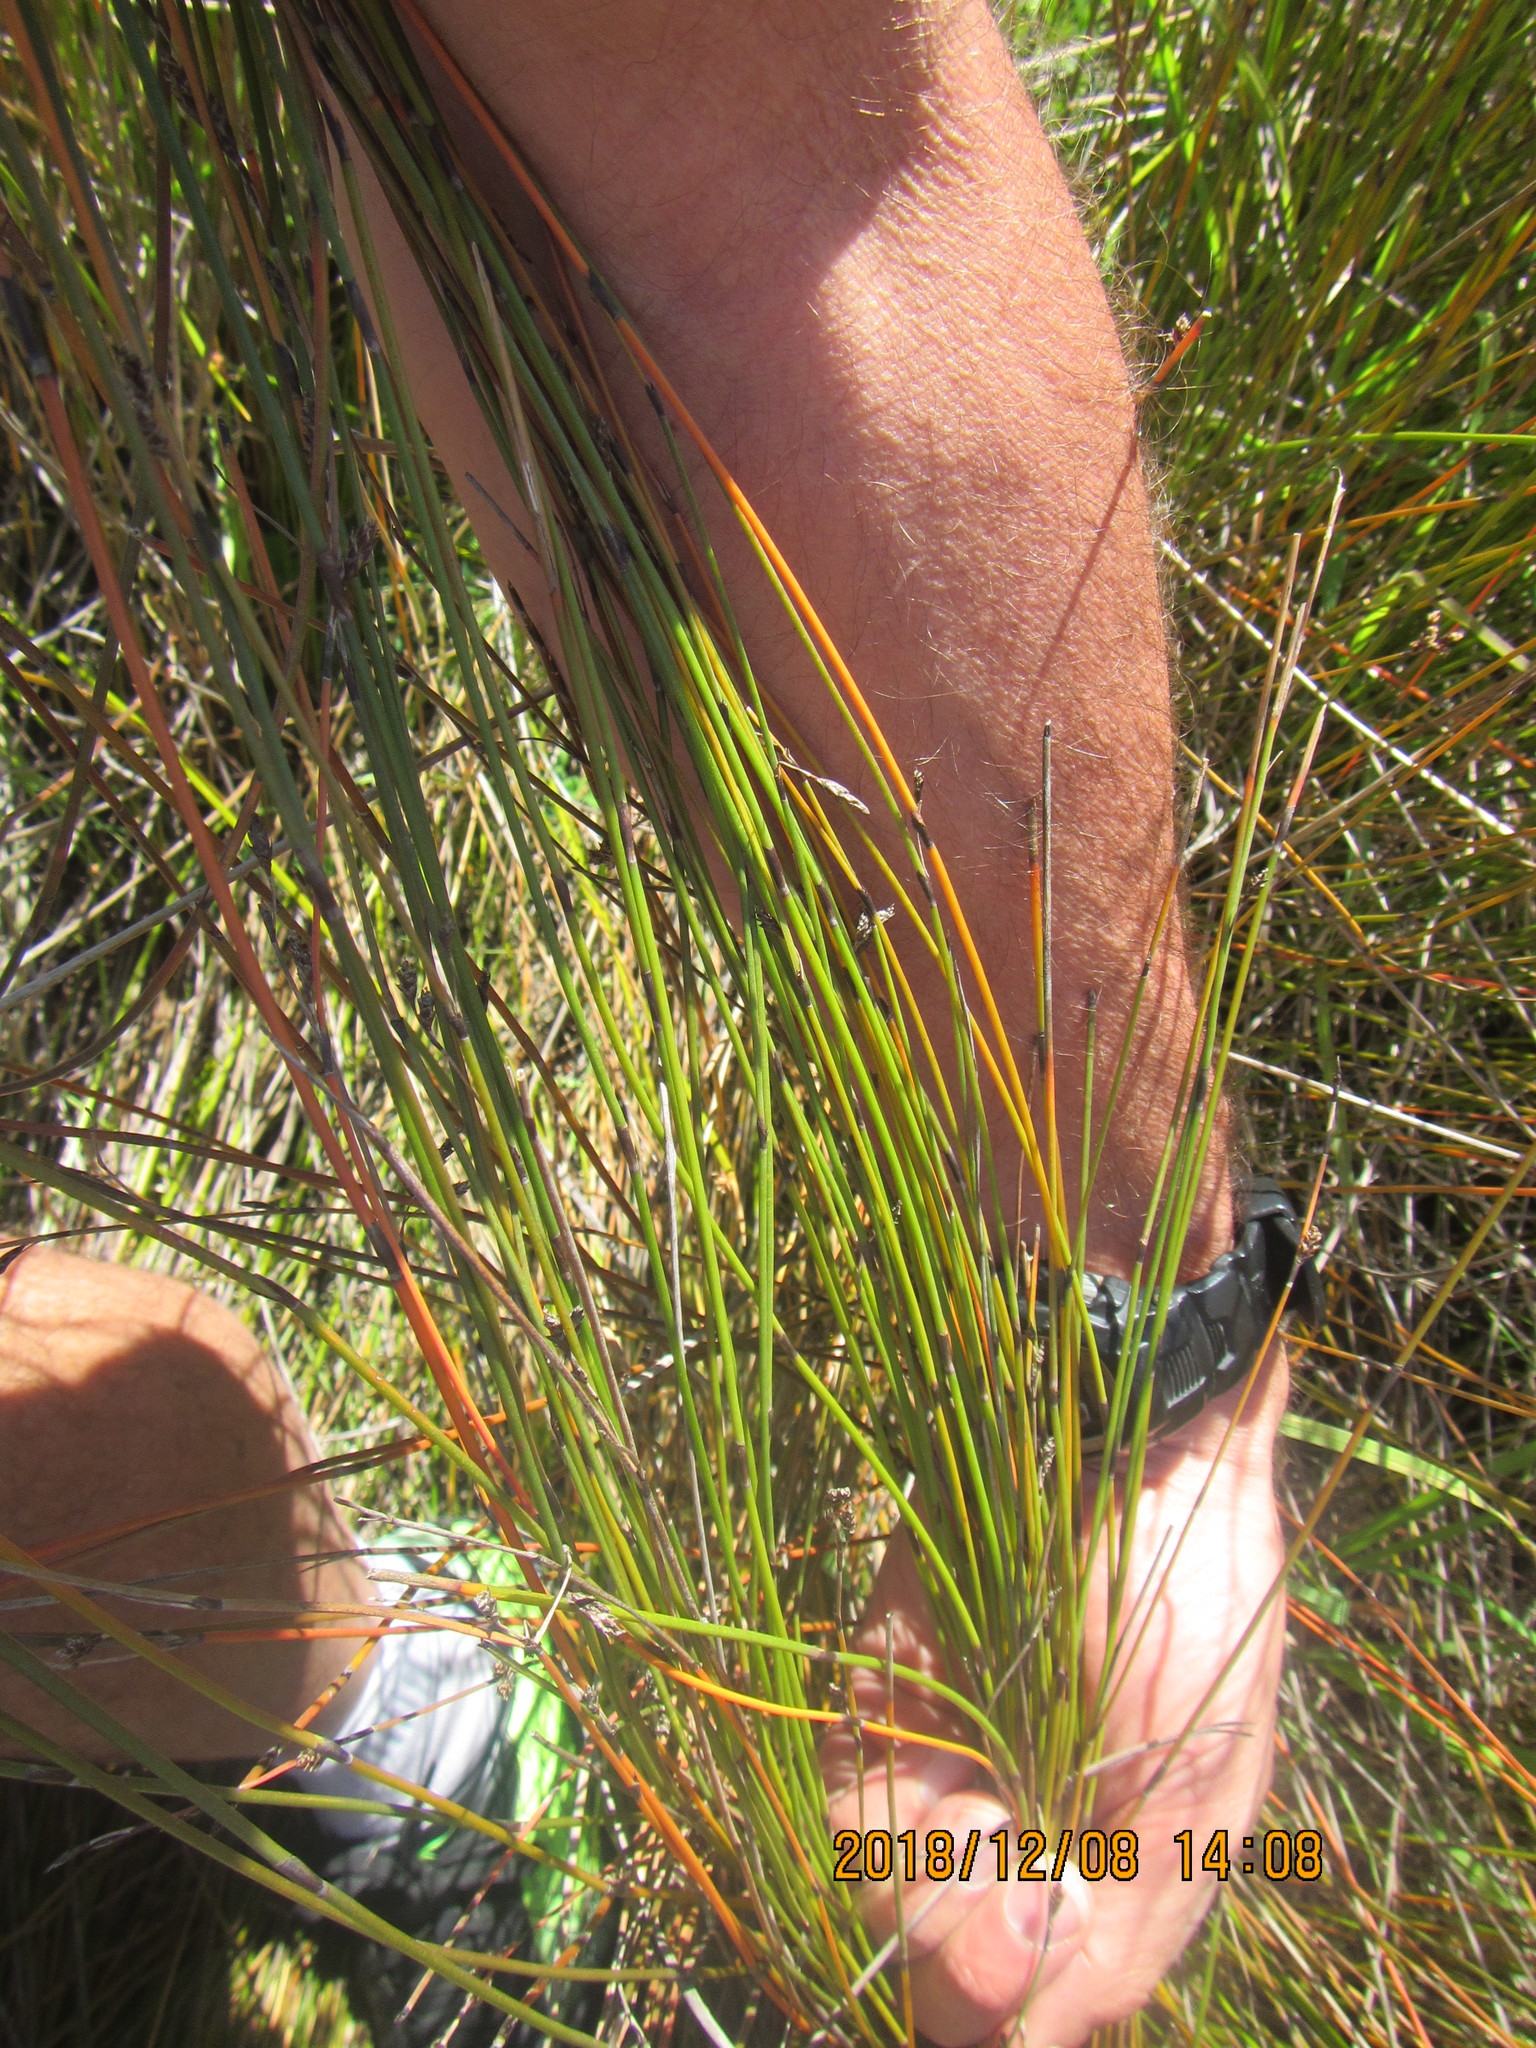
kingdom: Plantae
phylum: Tracheophyta
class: Liliopsida
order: Poales
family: Restionaceae
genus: Apodasmia
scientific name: Apodasmia similis
